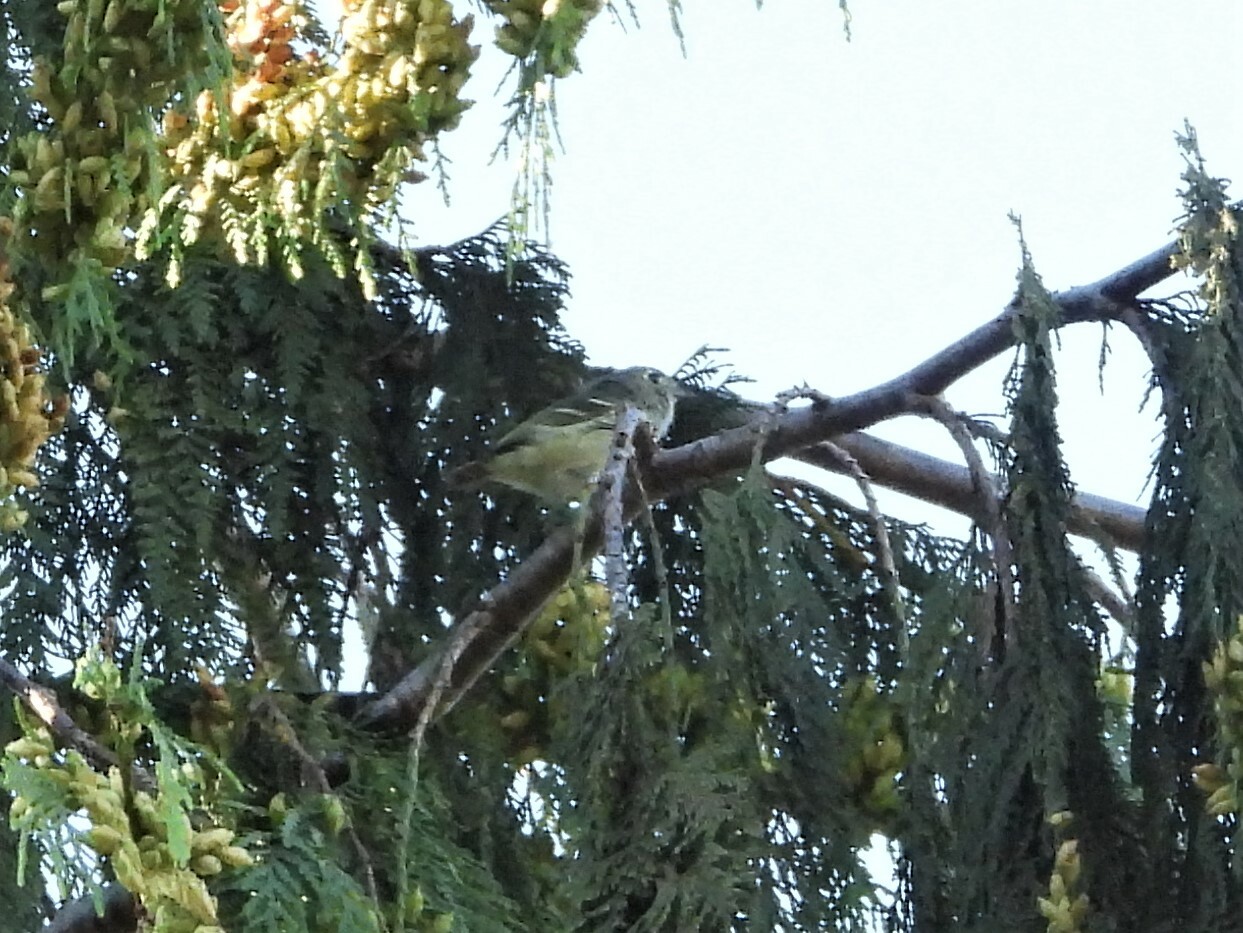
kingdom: Animalia
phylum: Chordata
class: Aves
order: Passeriformes
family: Vireonidae
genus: Vireo
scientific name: Vireo huttoni
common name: Hutton's vireo
